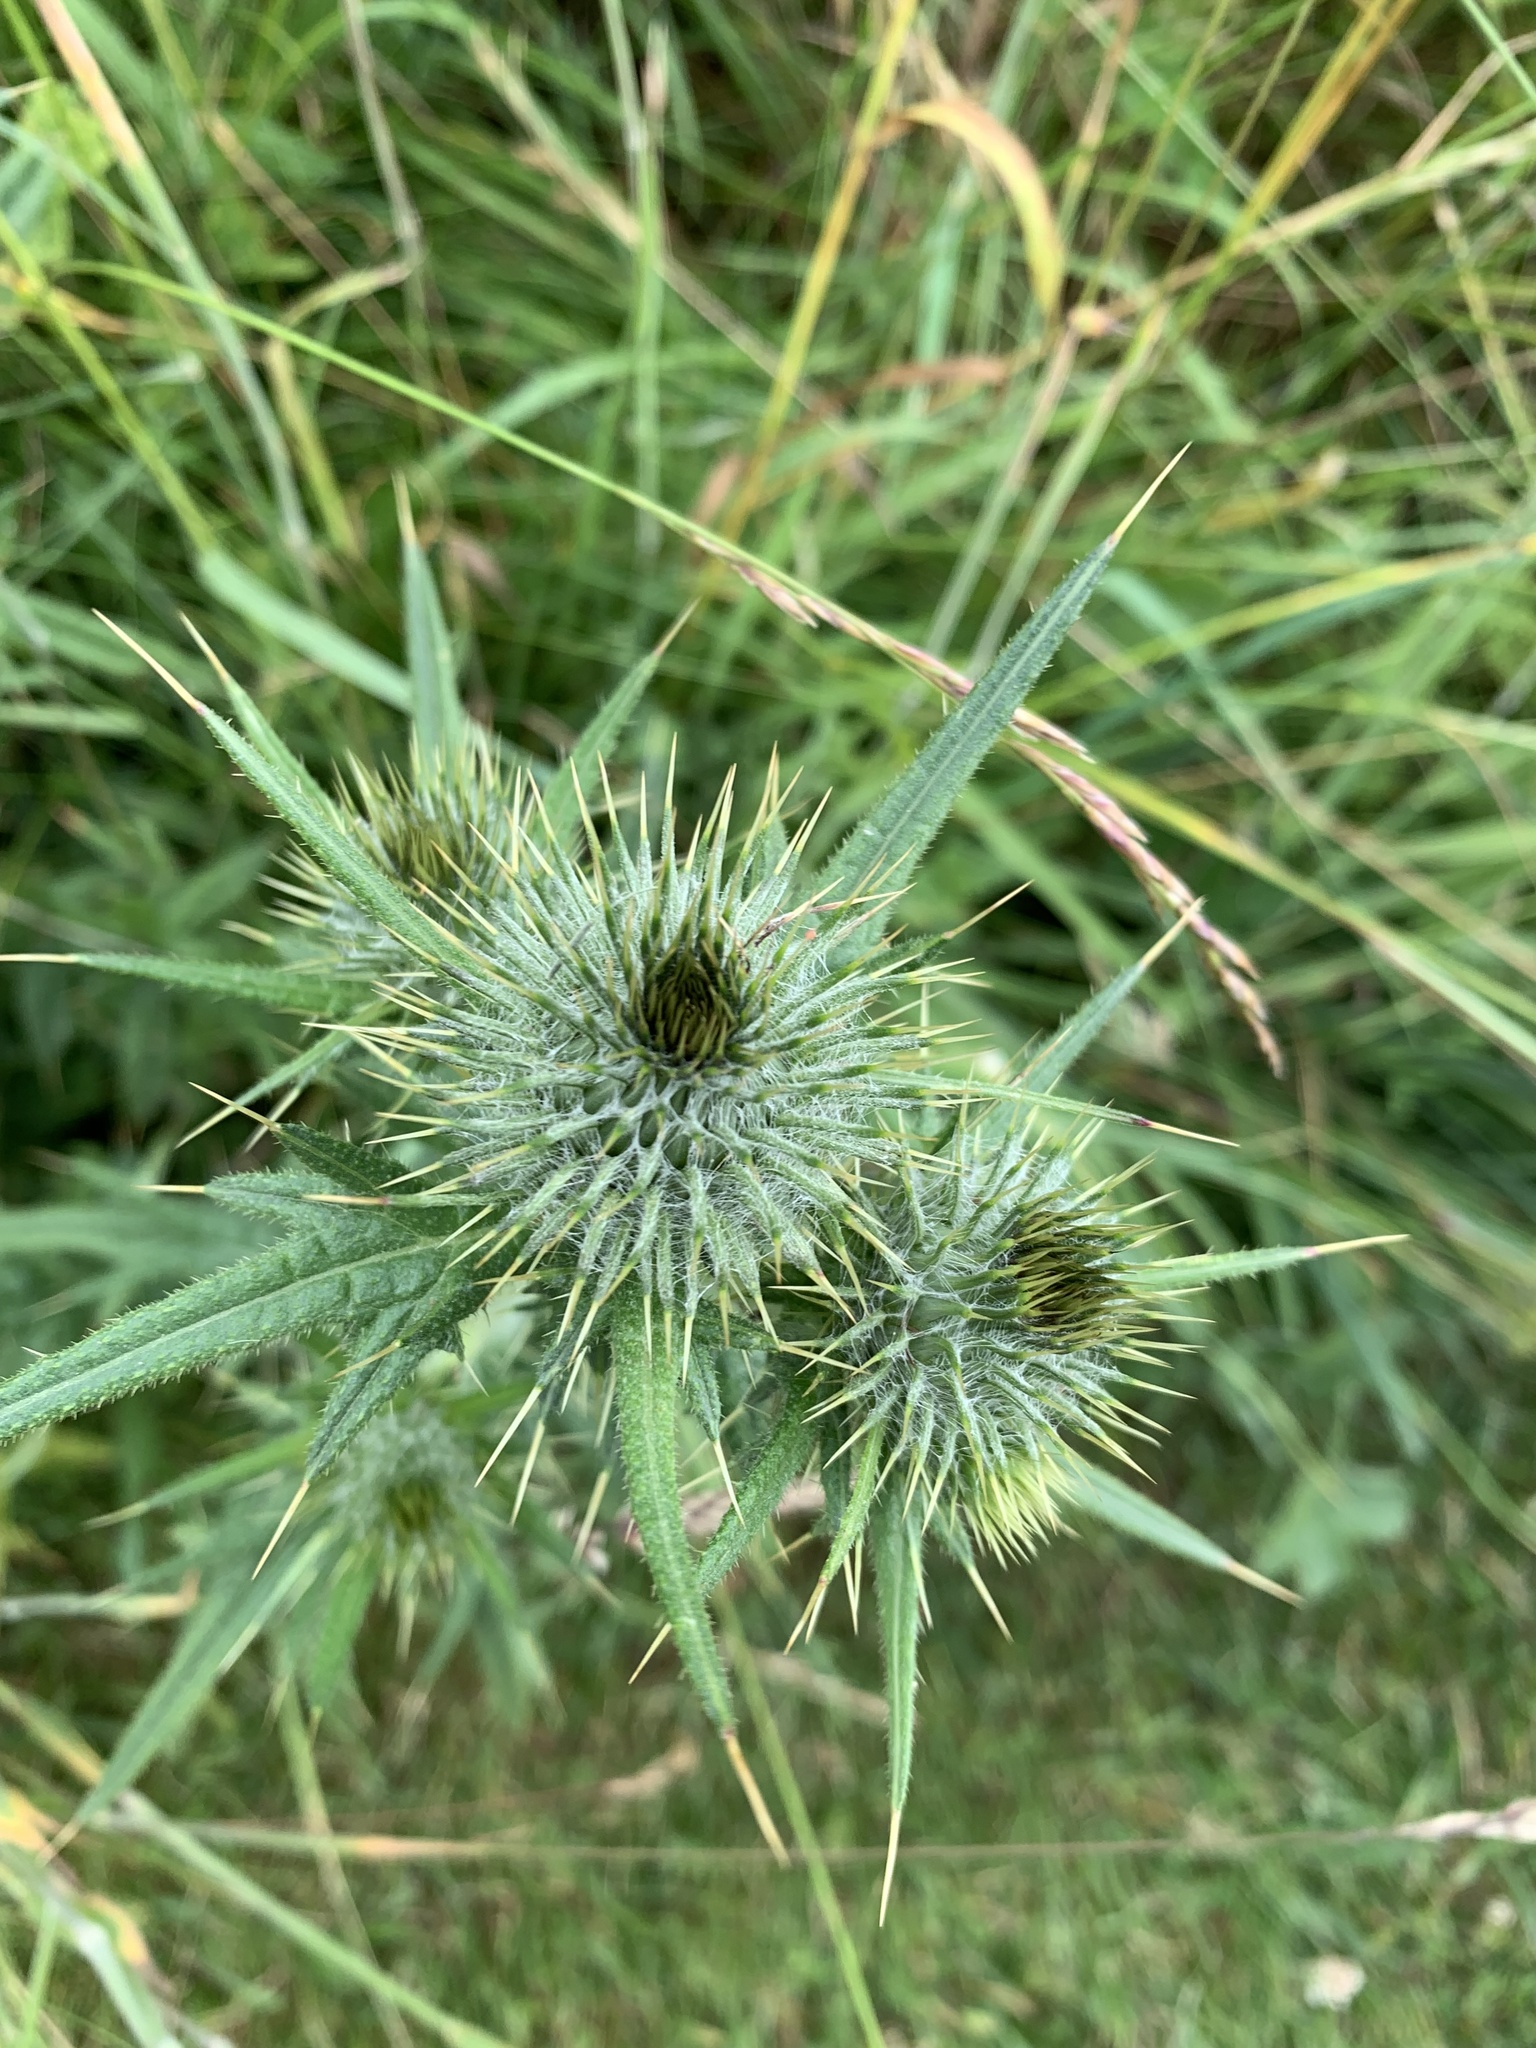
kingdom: Plantae
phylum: Tracheophyta
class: Magnoliopsida
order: Asterales
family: Asteraceae
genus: Cirsium
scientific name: Cirsium vulgare
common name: Bull thistle
